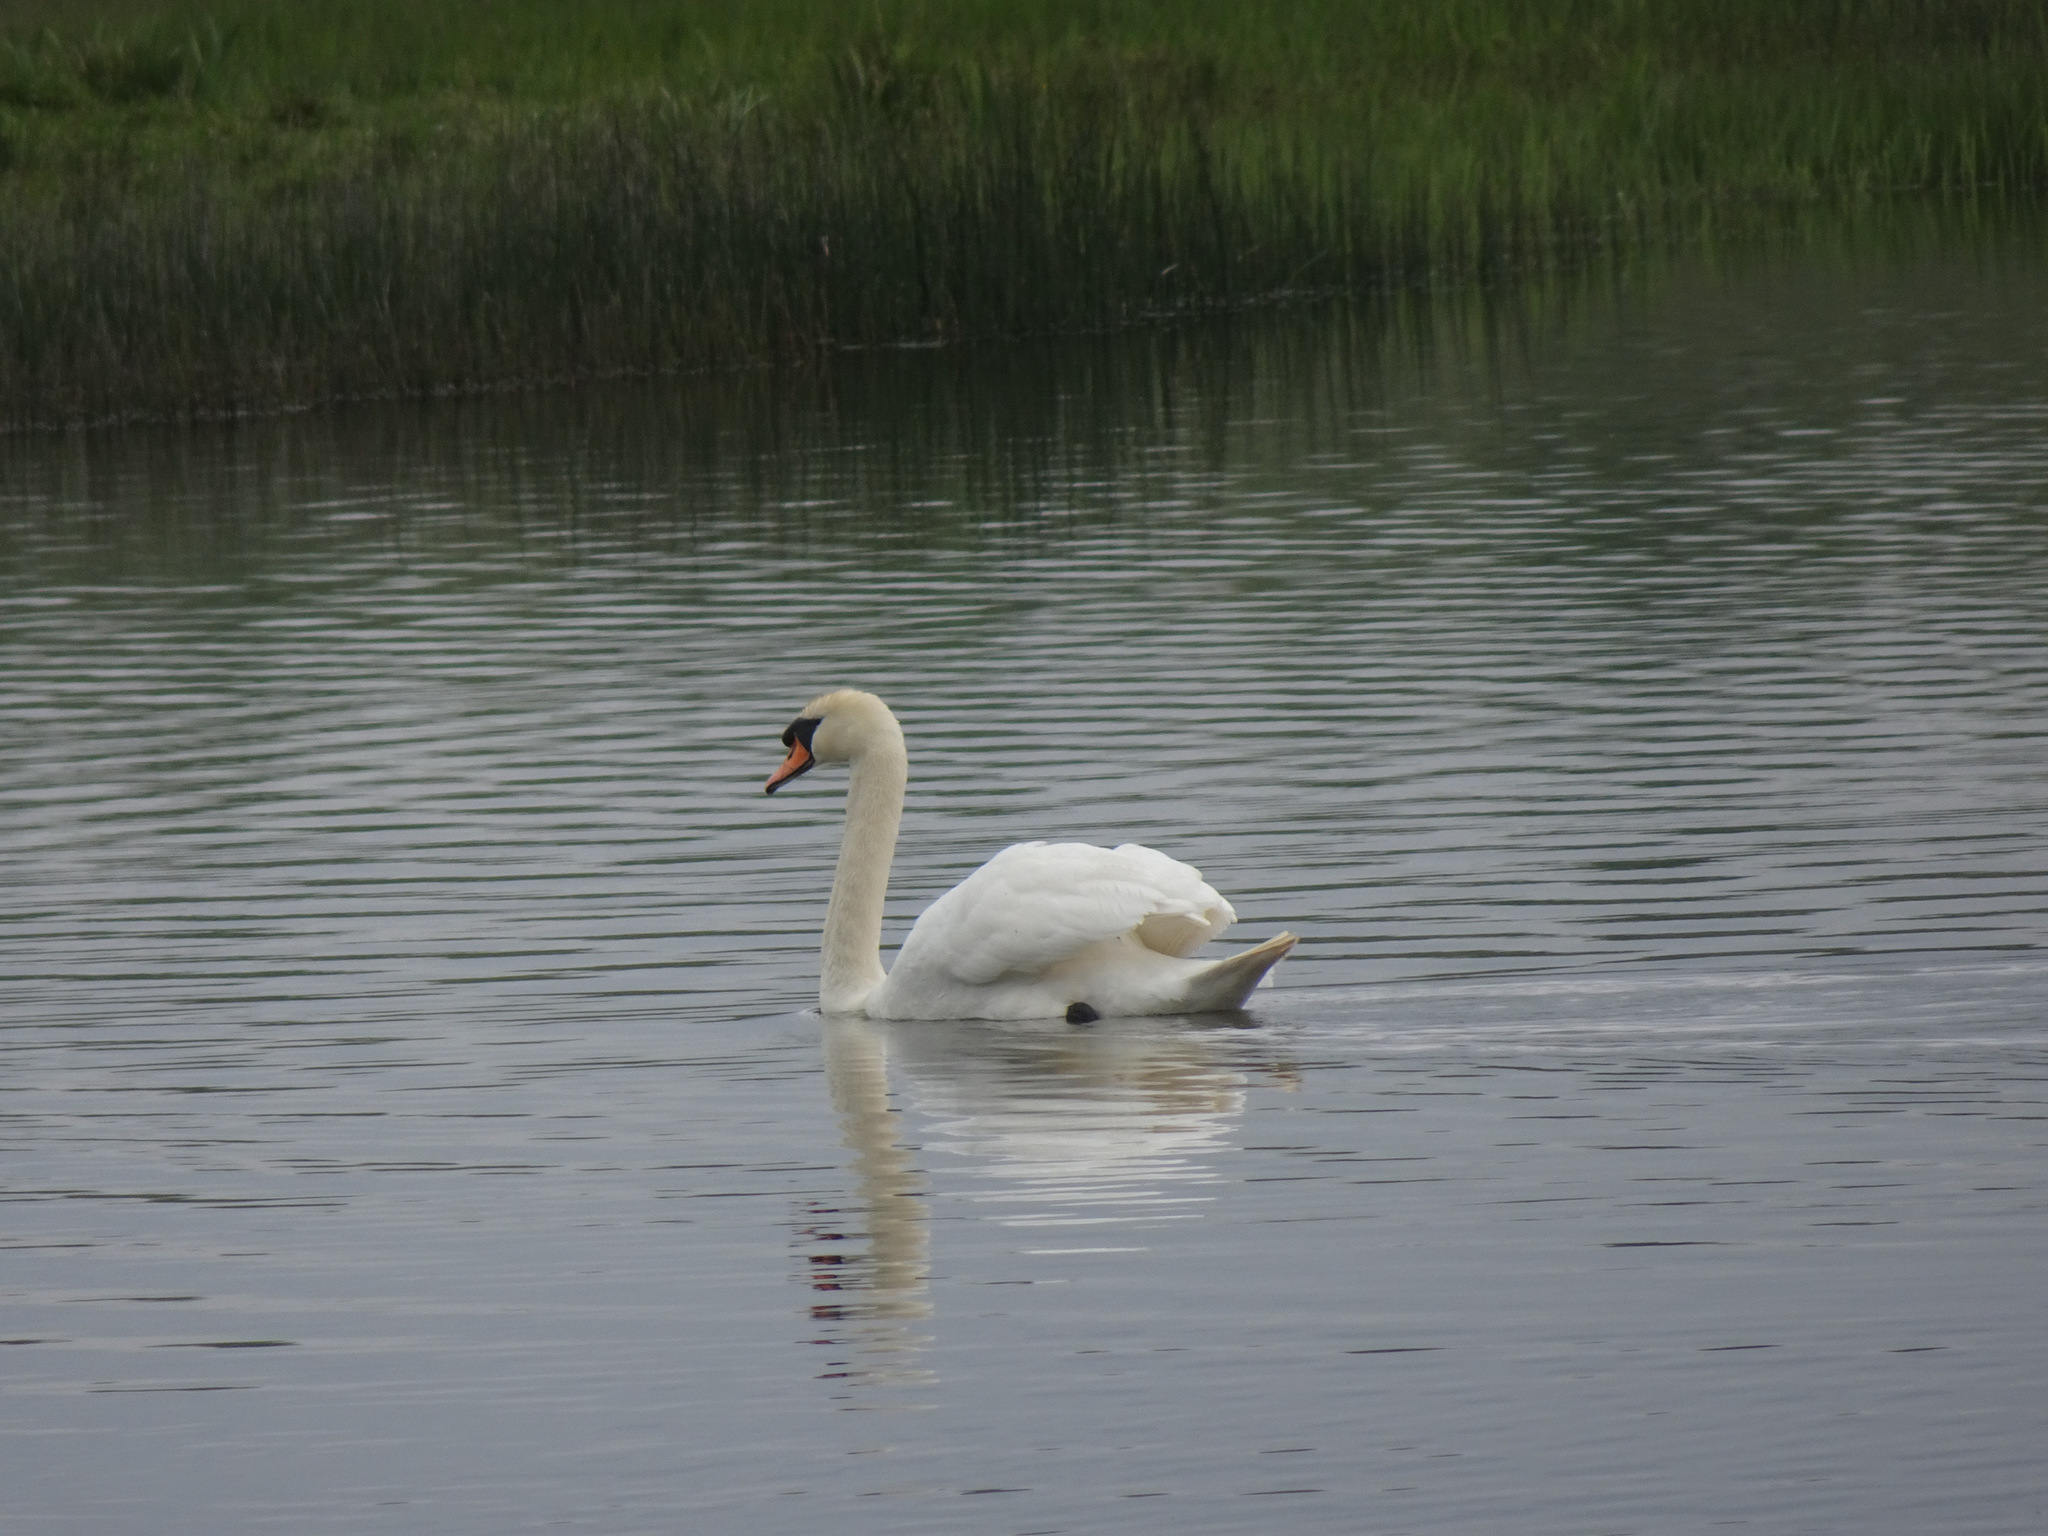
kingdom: Animalia
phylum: Chordata
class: Aves
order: Anseriformes
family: Anatidae
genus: Cygnus
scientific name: Cygnus olor
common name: Mute swan
